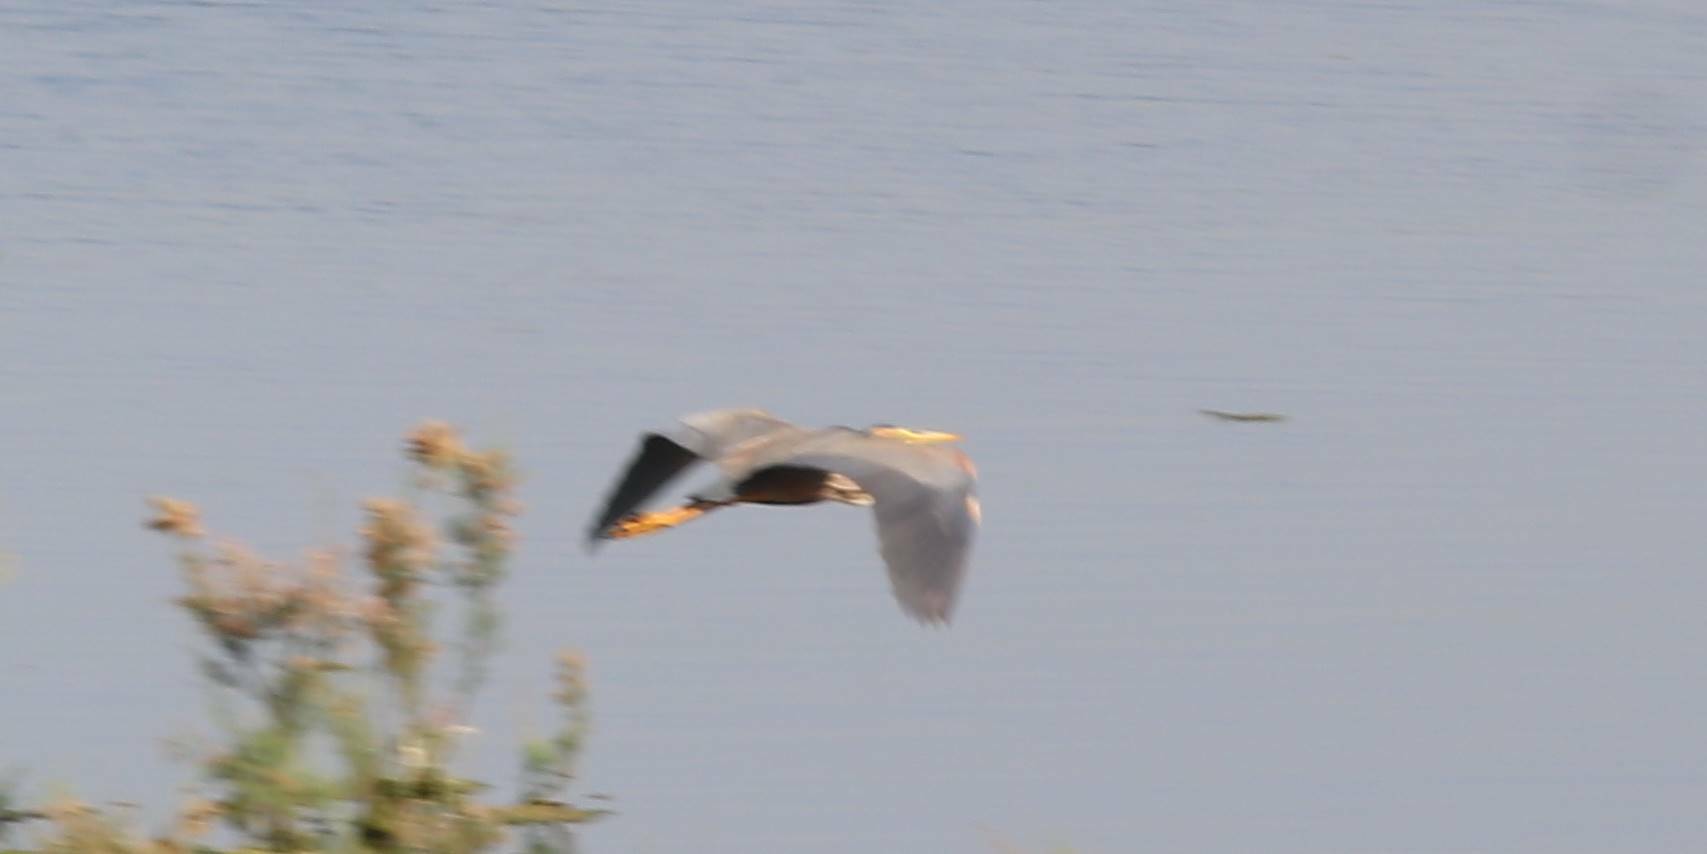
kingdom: Animalia
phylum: Chordata
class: Aves
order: Pelecaniformes
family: Ardeidae
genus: Ardea
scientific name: Ardea purpurea
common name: Purple heron
